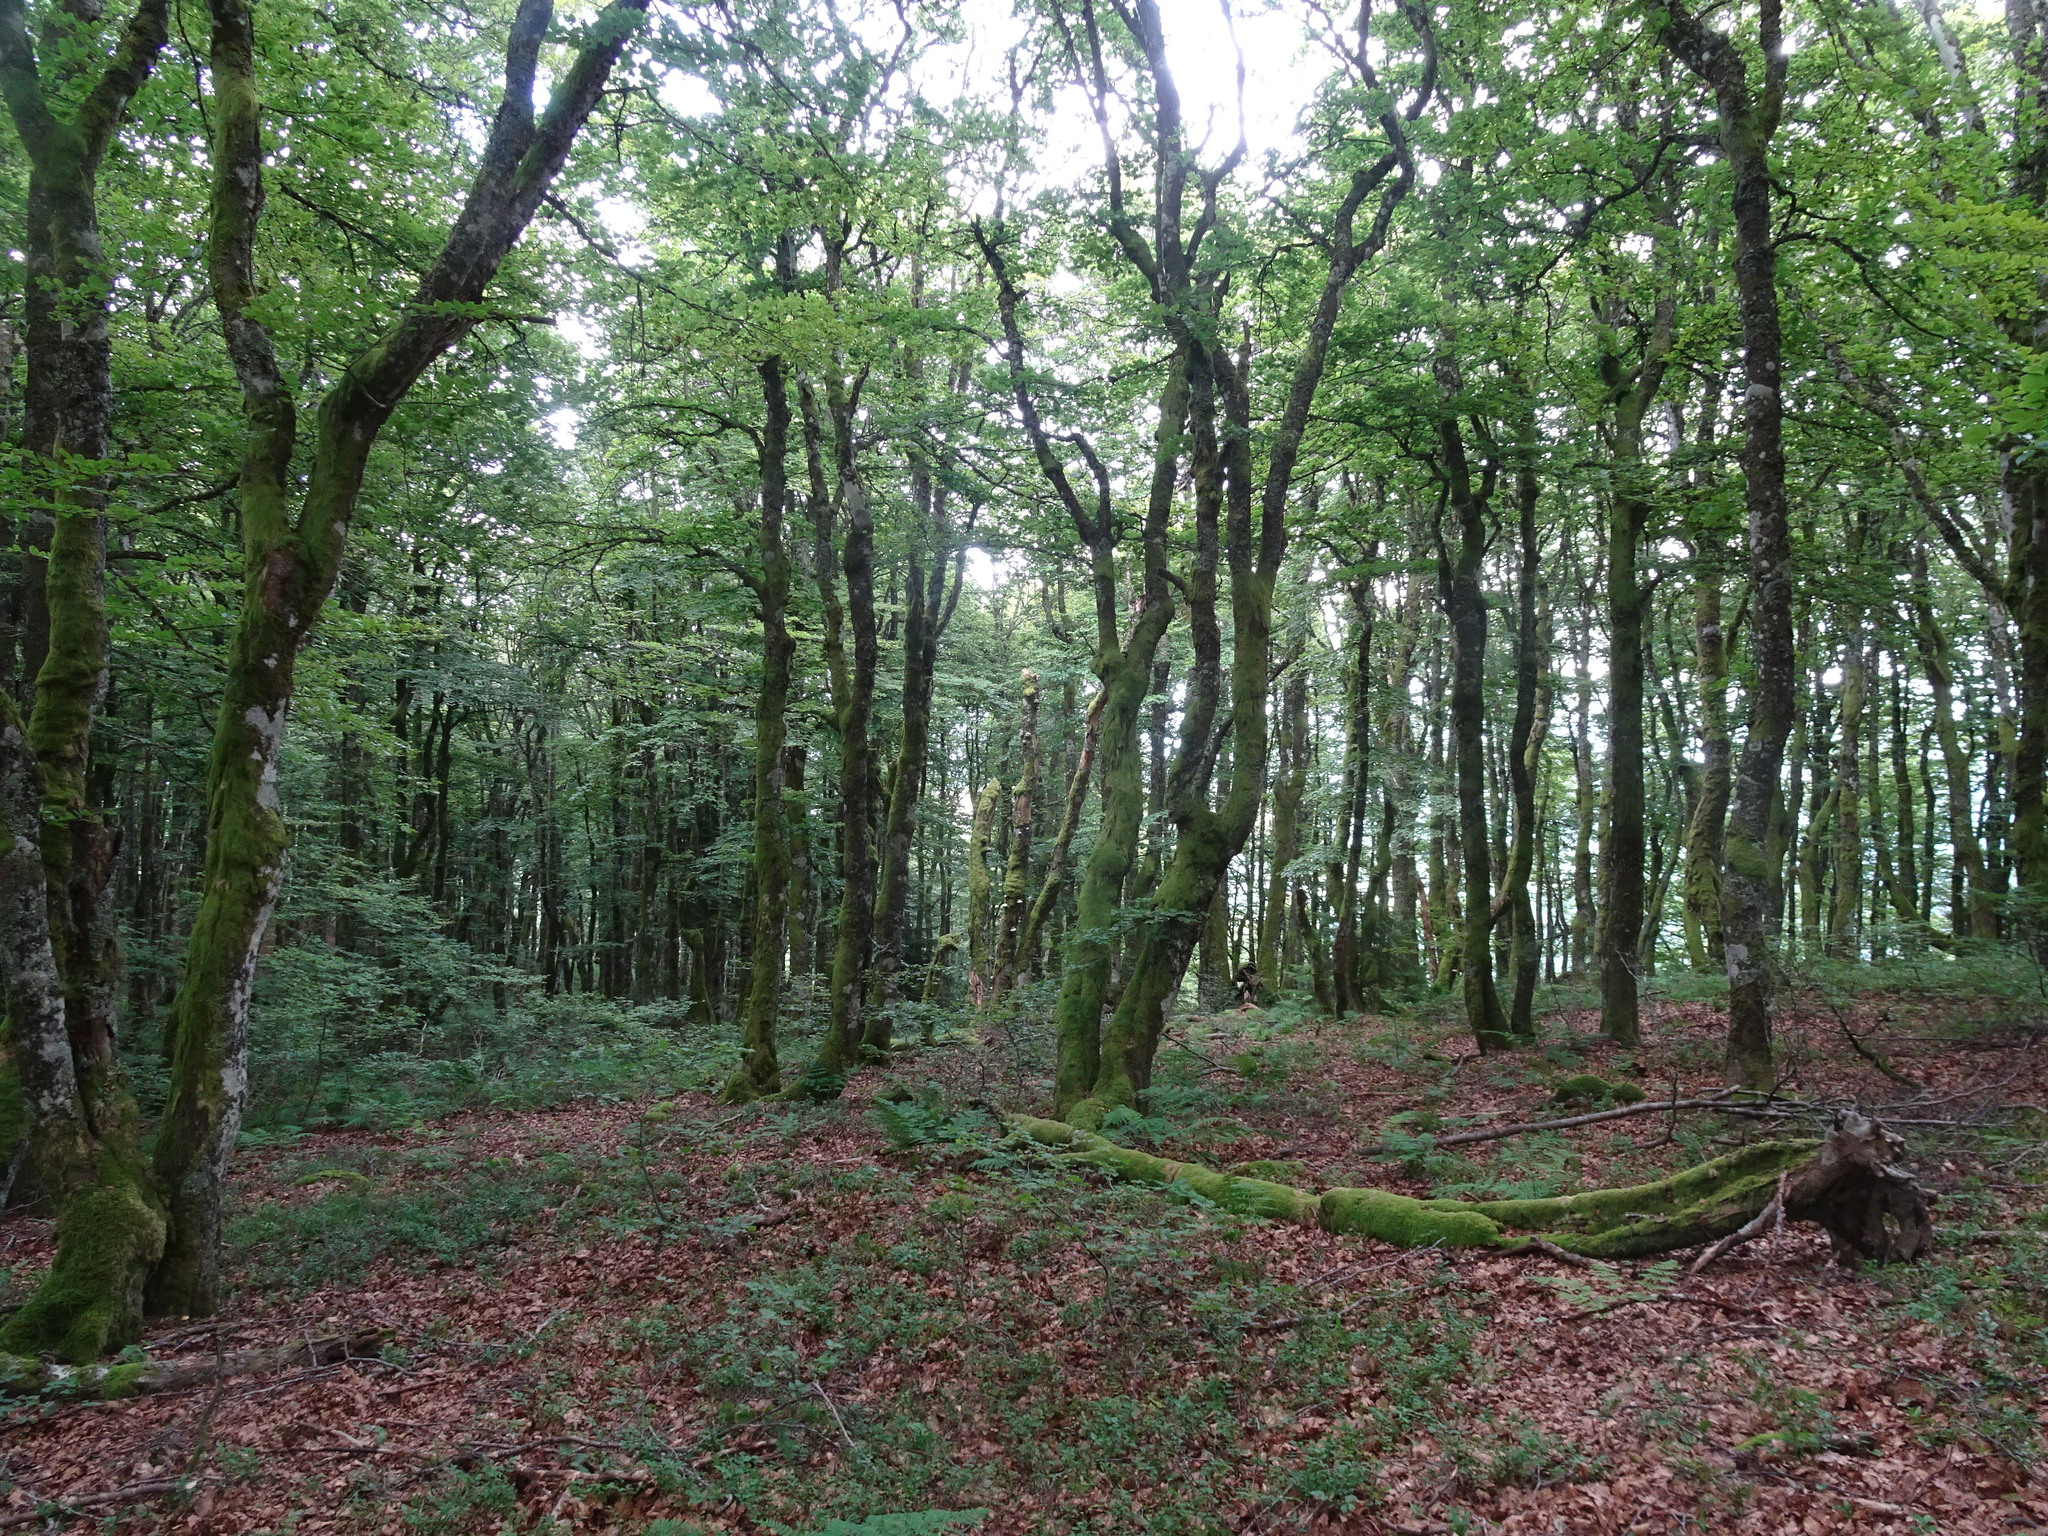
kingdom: Plantae
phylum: Tracheophyta
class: Magnoliopsida
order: Fagales
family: Fagaceae
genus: Fagus
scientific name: Fagus sylvatica
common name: Beech
